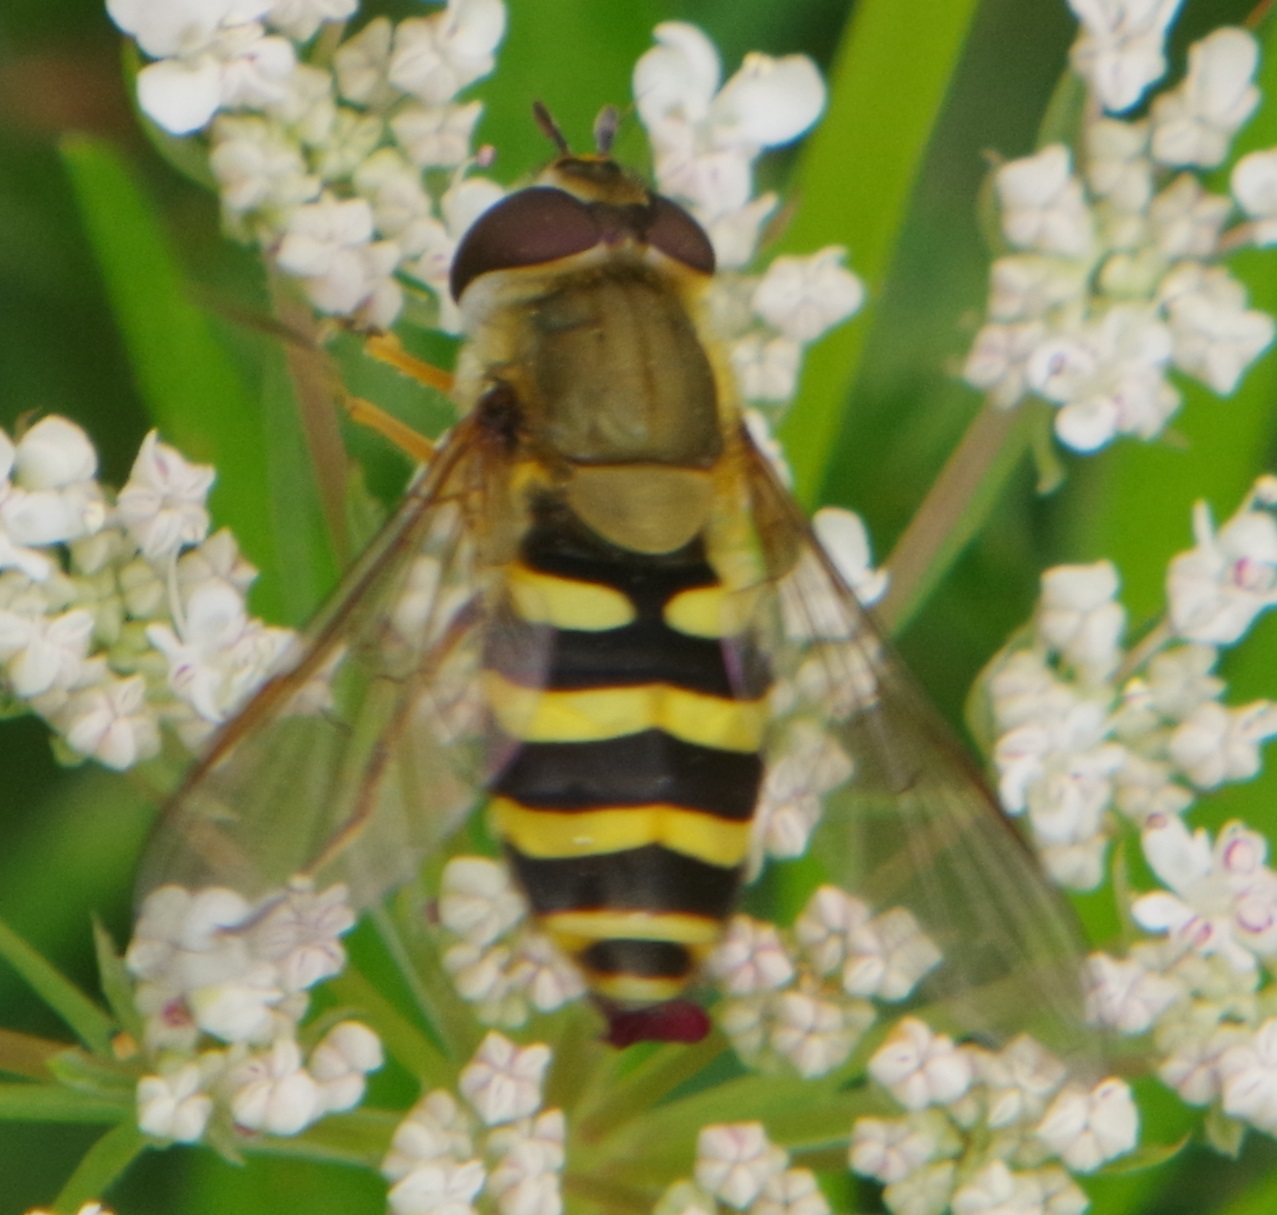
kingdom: Animalia
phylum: Arthropoda
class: Insecta
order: Diptera
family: Syrphidae
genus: Syrphus
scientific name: Syrphus
